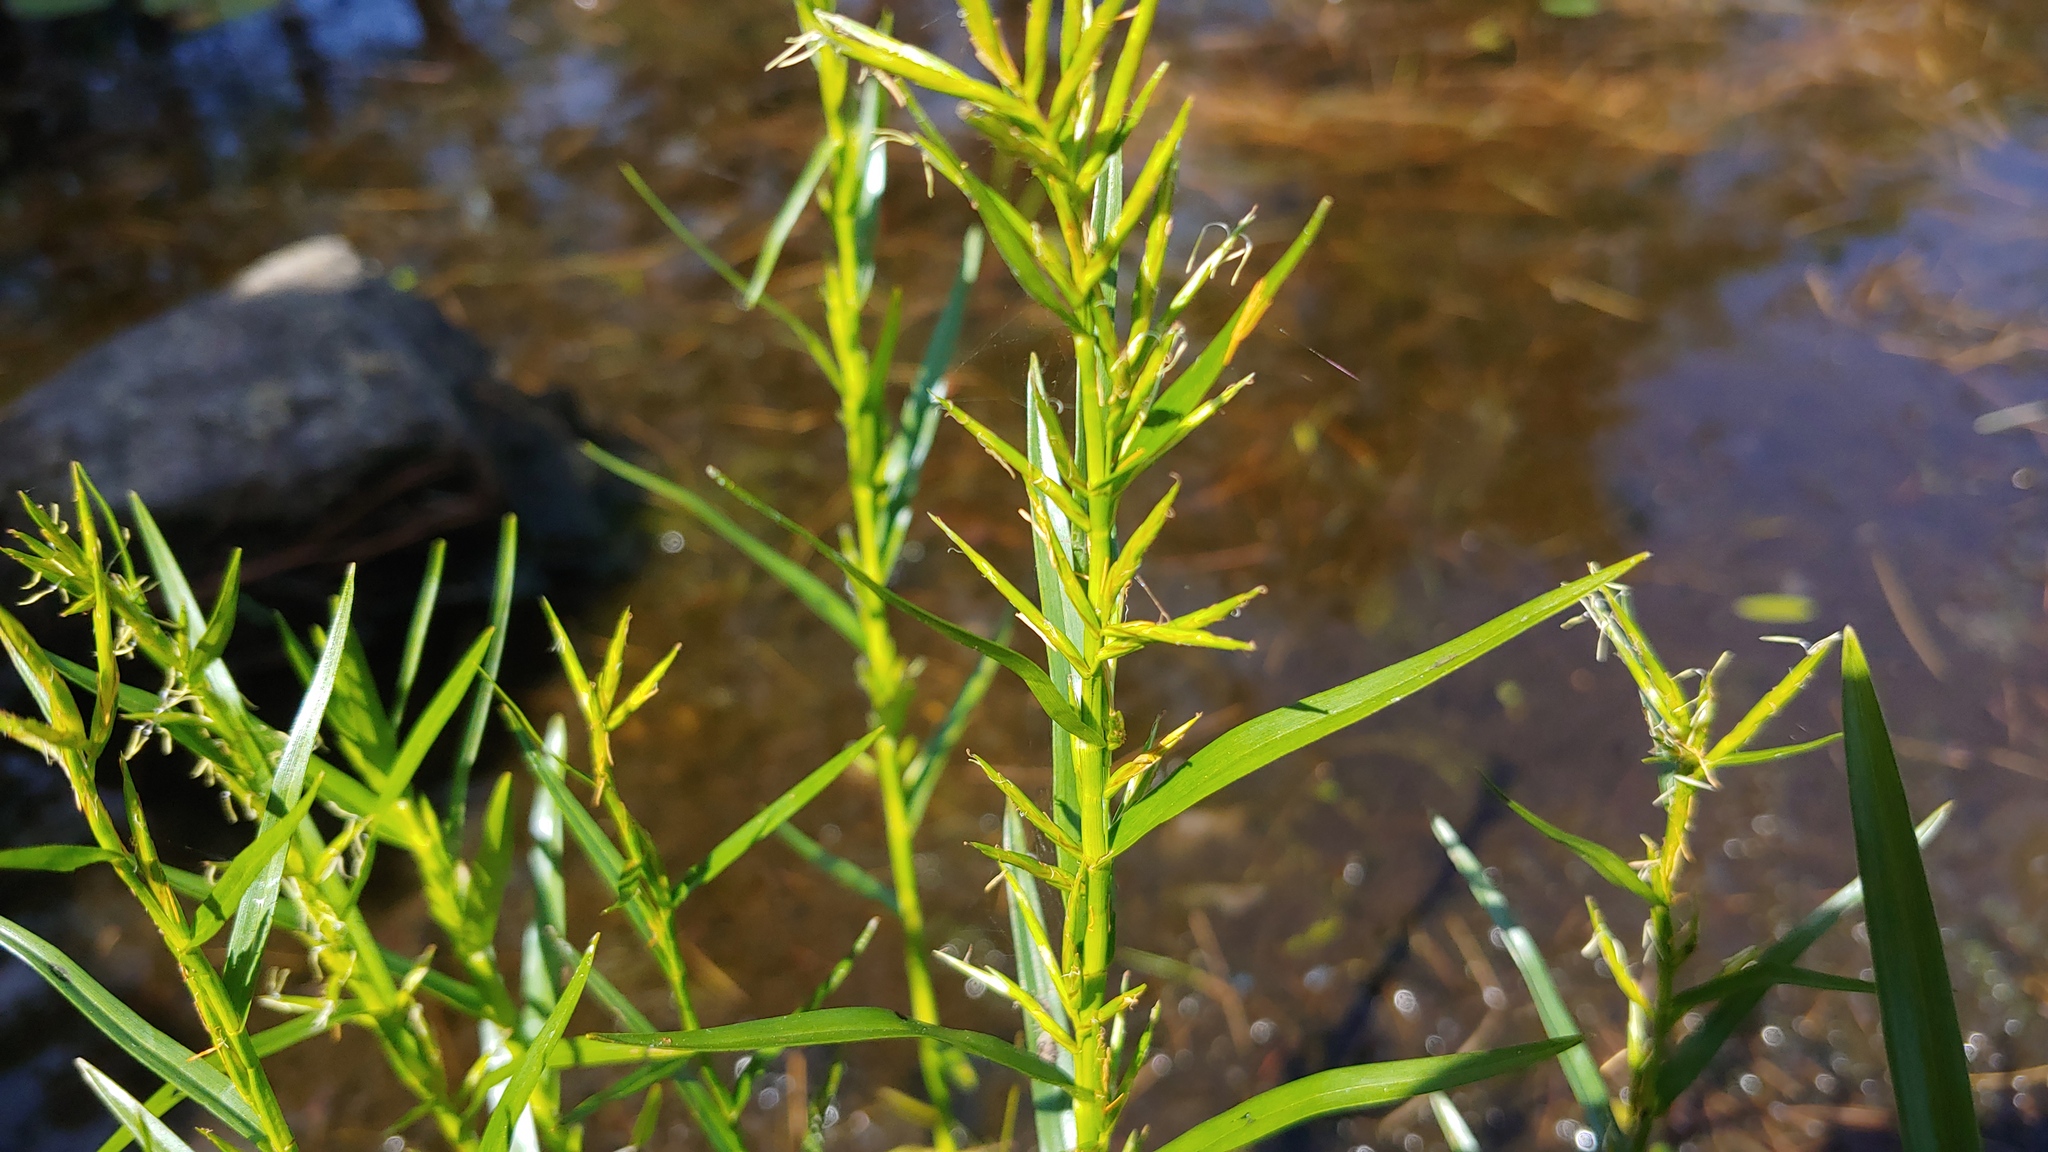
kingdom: Plantae
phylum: Tracheophyta
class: Liliopsida
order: Poales
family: Cyperaceae
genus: Dulichium
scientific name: Dulichium arundinaceum
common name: Three-way sedge
